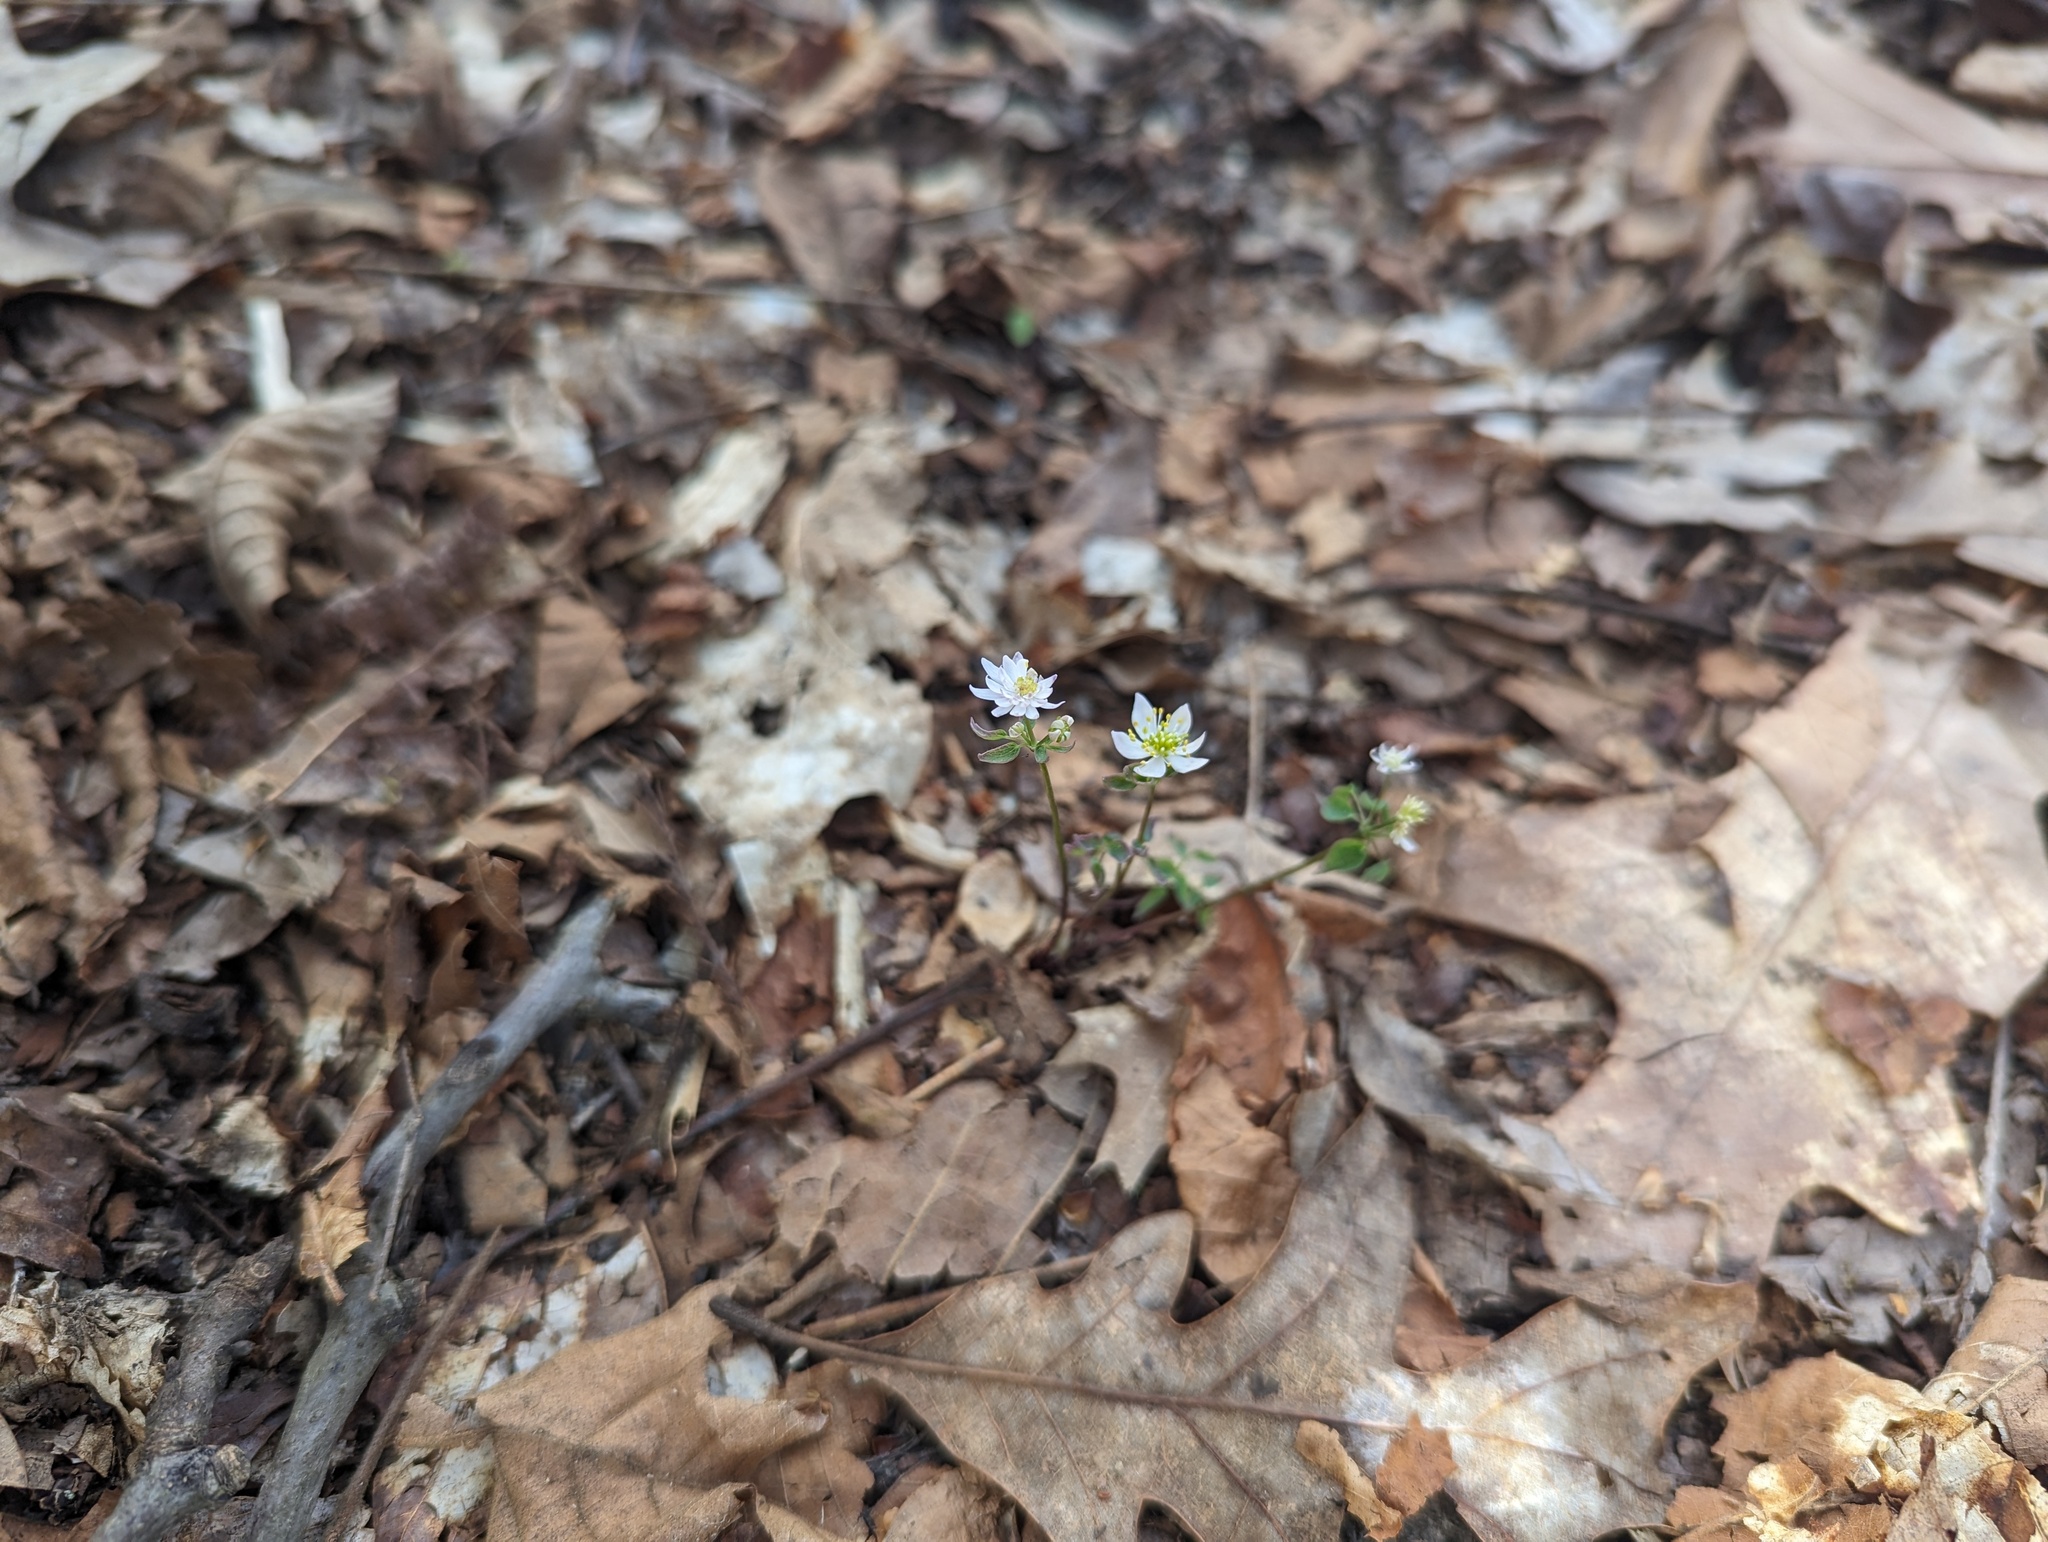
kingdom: Plantae
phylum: Tracheophyta
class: Magnoliopsida
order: Ranunculales
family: Ranunculaceae
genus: Thalictrum
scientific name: Thalictrum thalictroides
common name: Rue-anemone
